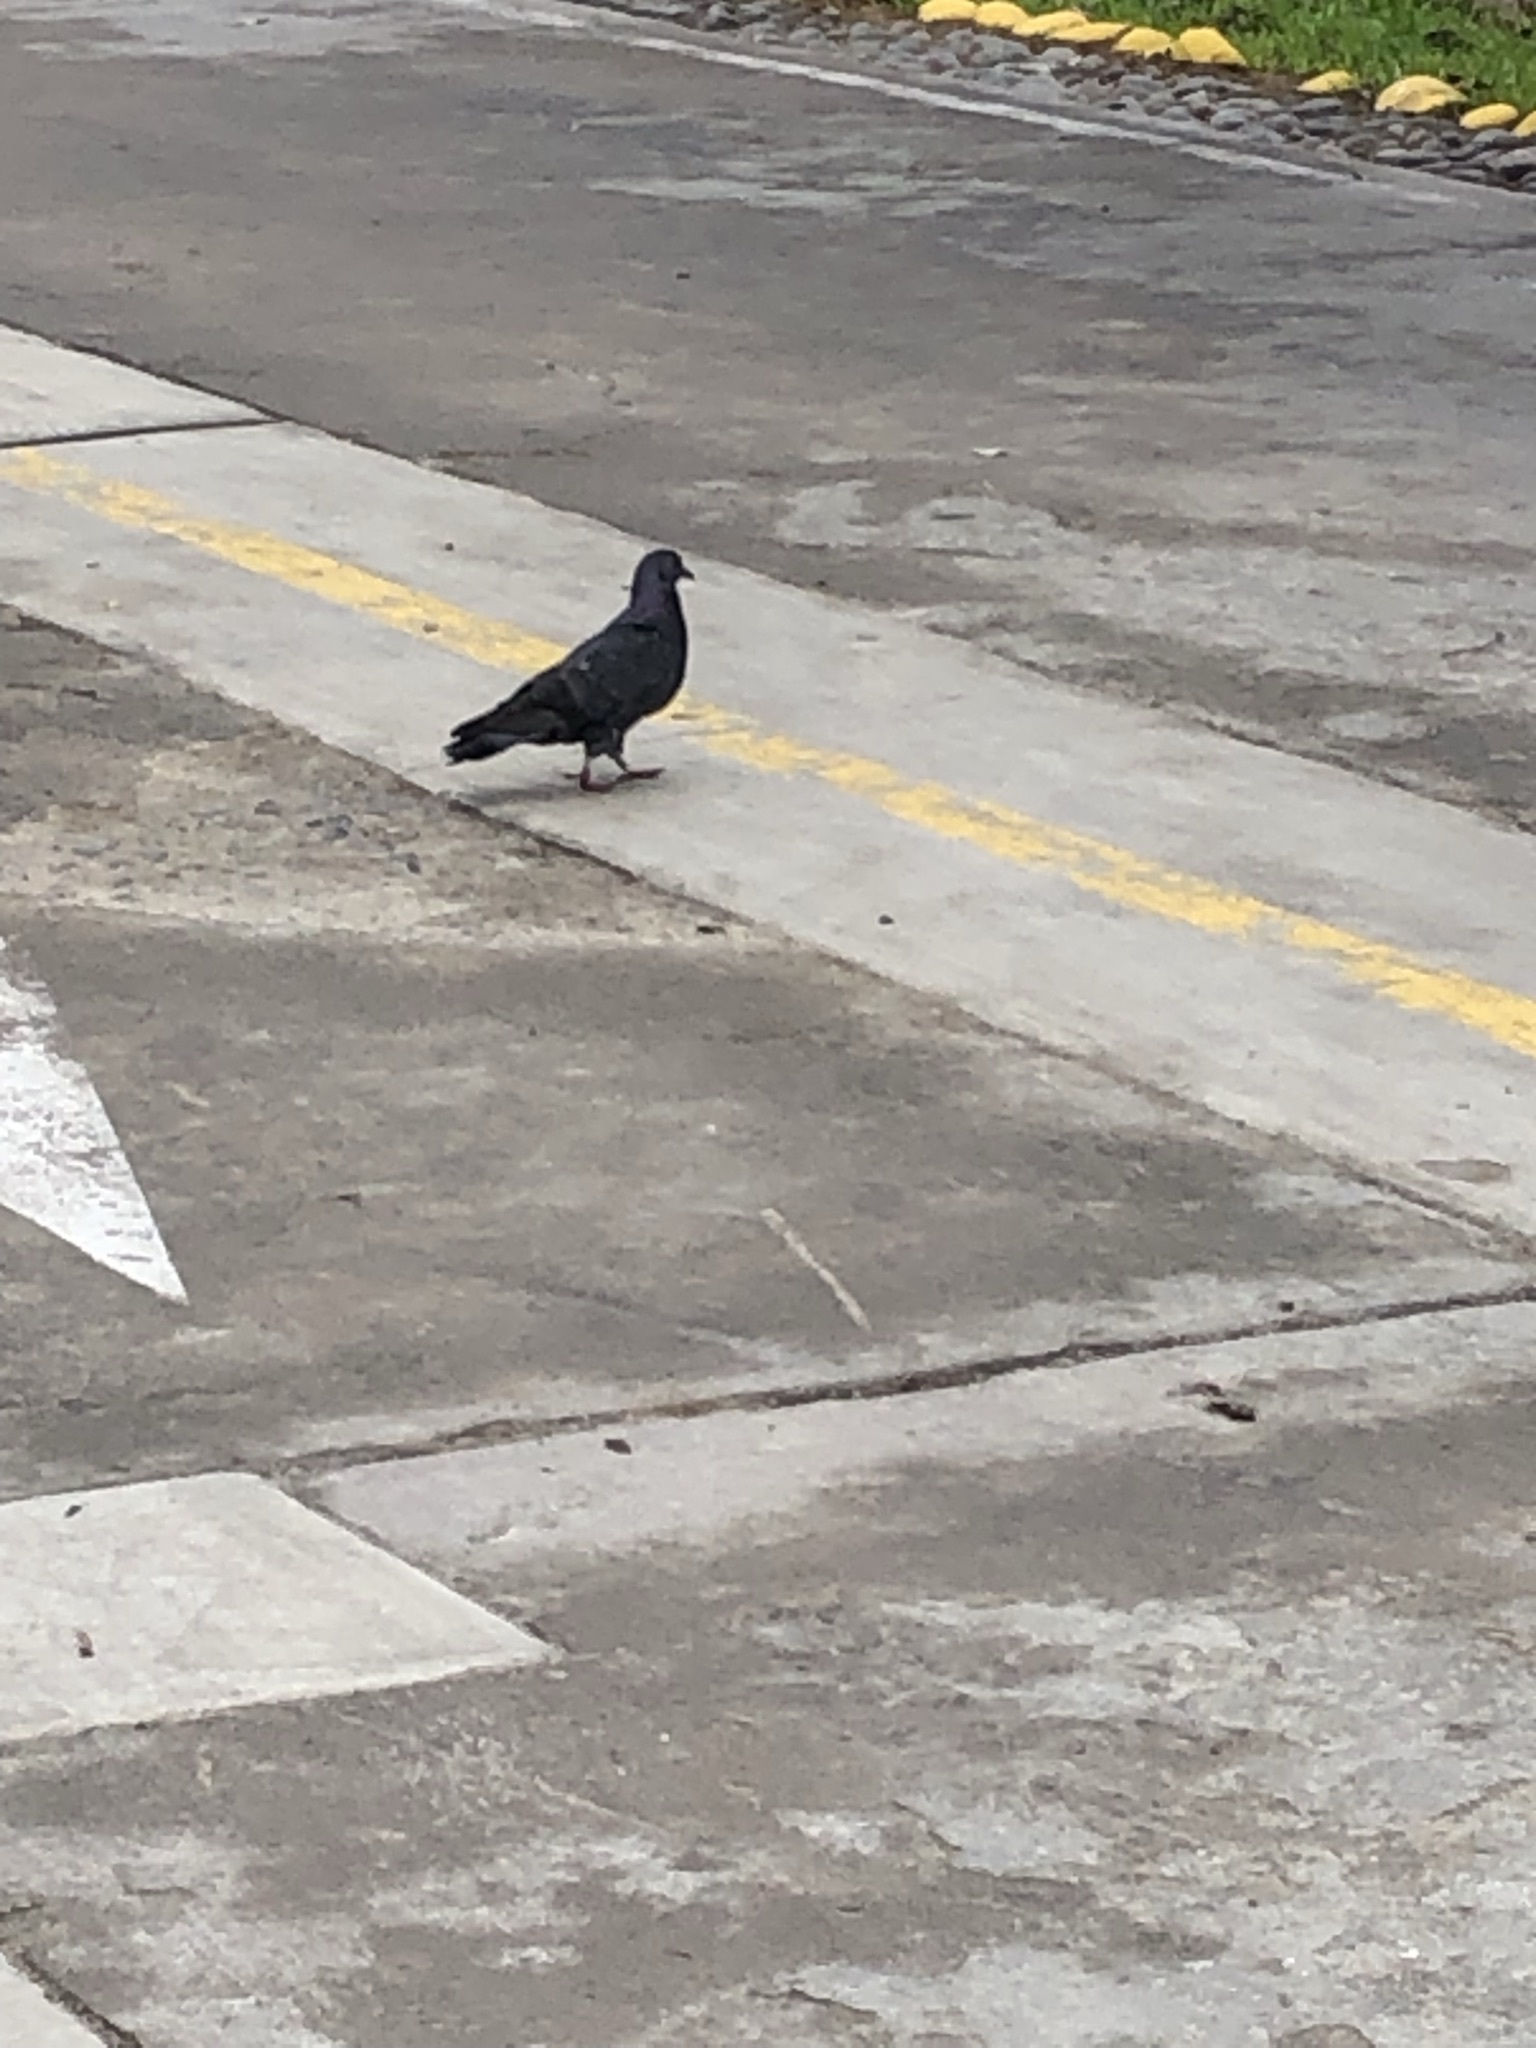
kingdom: Animalia
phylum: Chordata
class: Aves
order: Columbiformes
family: Columbidae
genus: Columba
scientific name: Columba livia
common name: Rock pigeon
